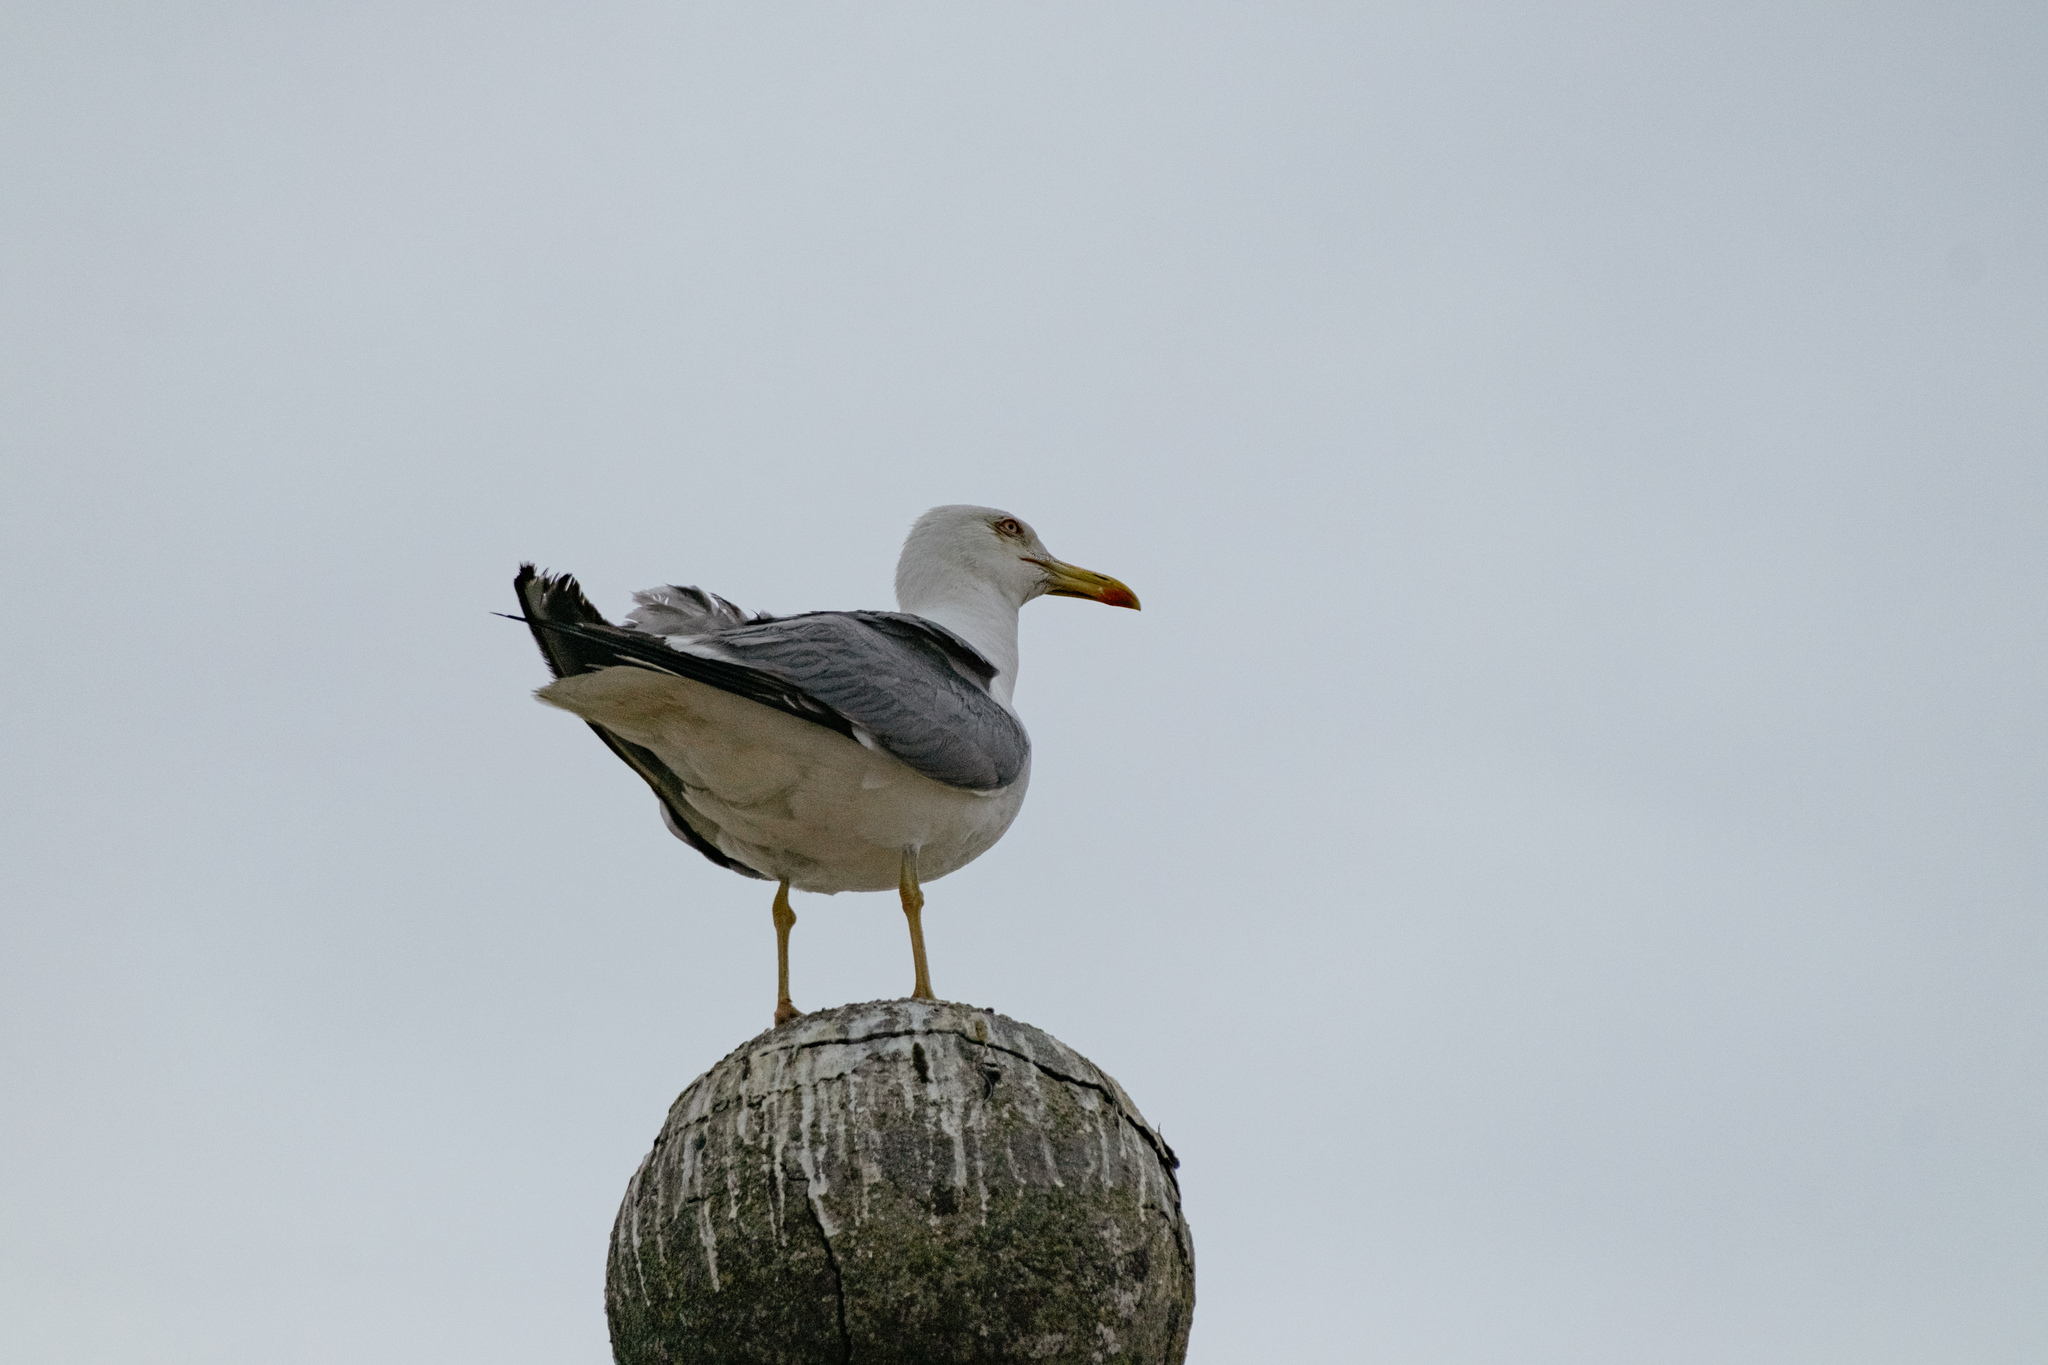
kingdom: Animalia
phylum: Chordata
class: Aves
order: Charadriiformes
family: Laridae
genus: Larus
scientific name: Larus michahellis
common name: Yellow-legged gull
